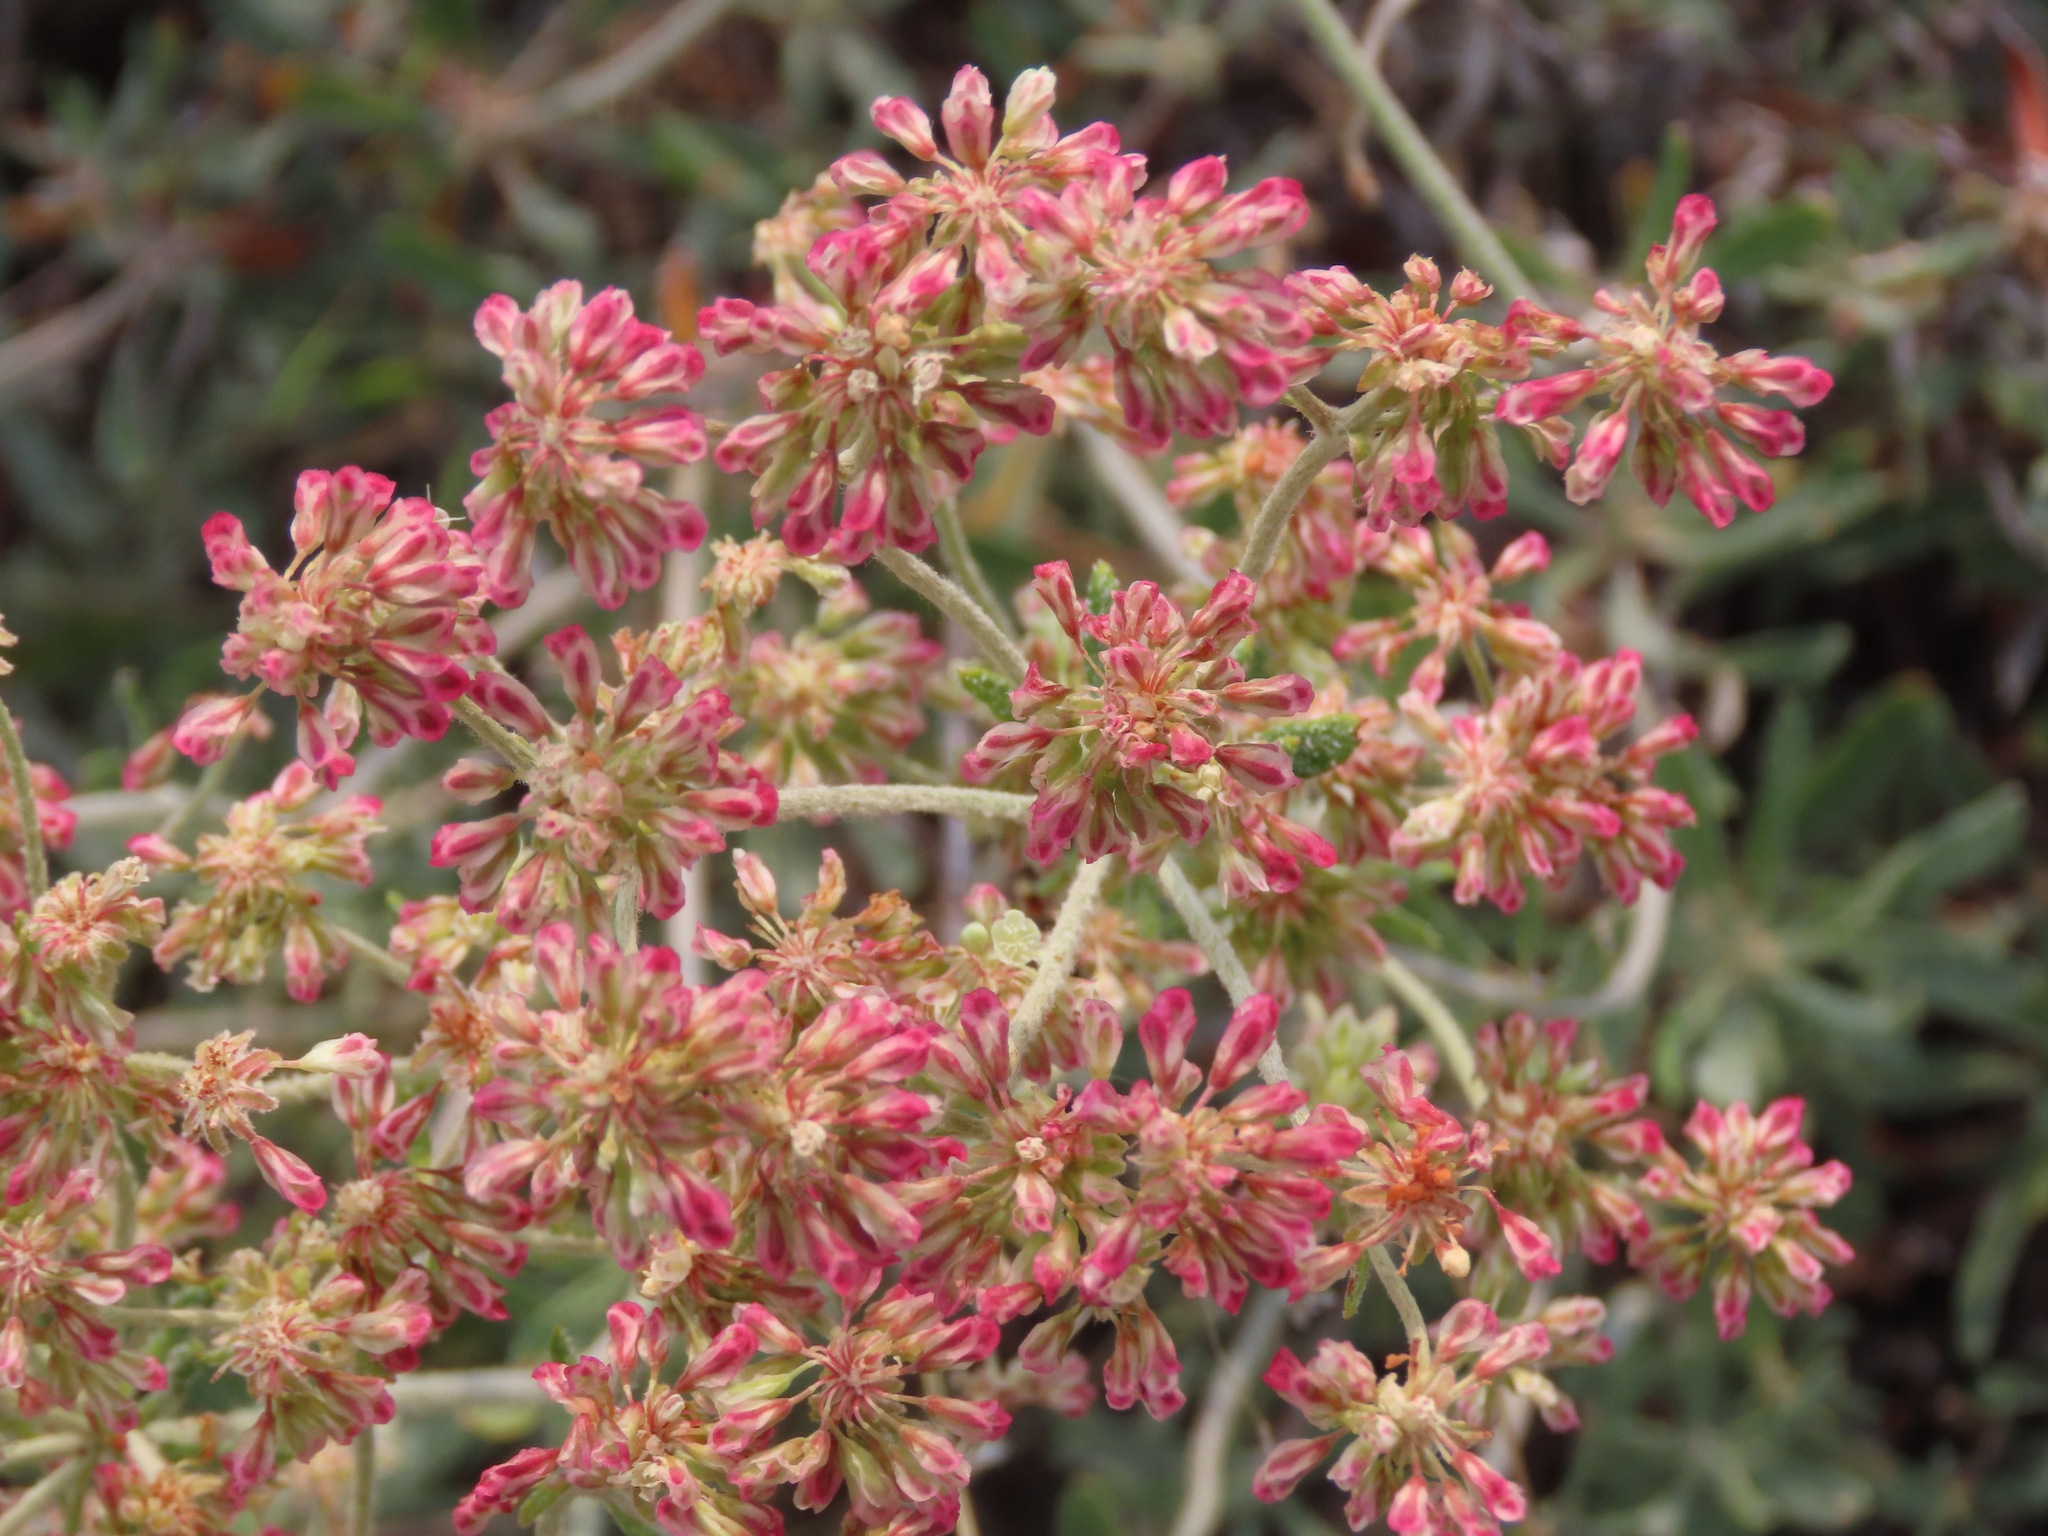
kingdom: Plantae
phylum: Tracheophyta
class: Magnoliopsida
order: Caryophyllales
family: Polygonaceae
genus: Eriogonum
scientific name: Eriogonum heracleoides
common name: Wyeth's buckwheat
